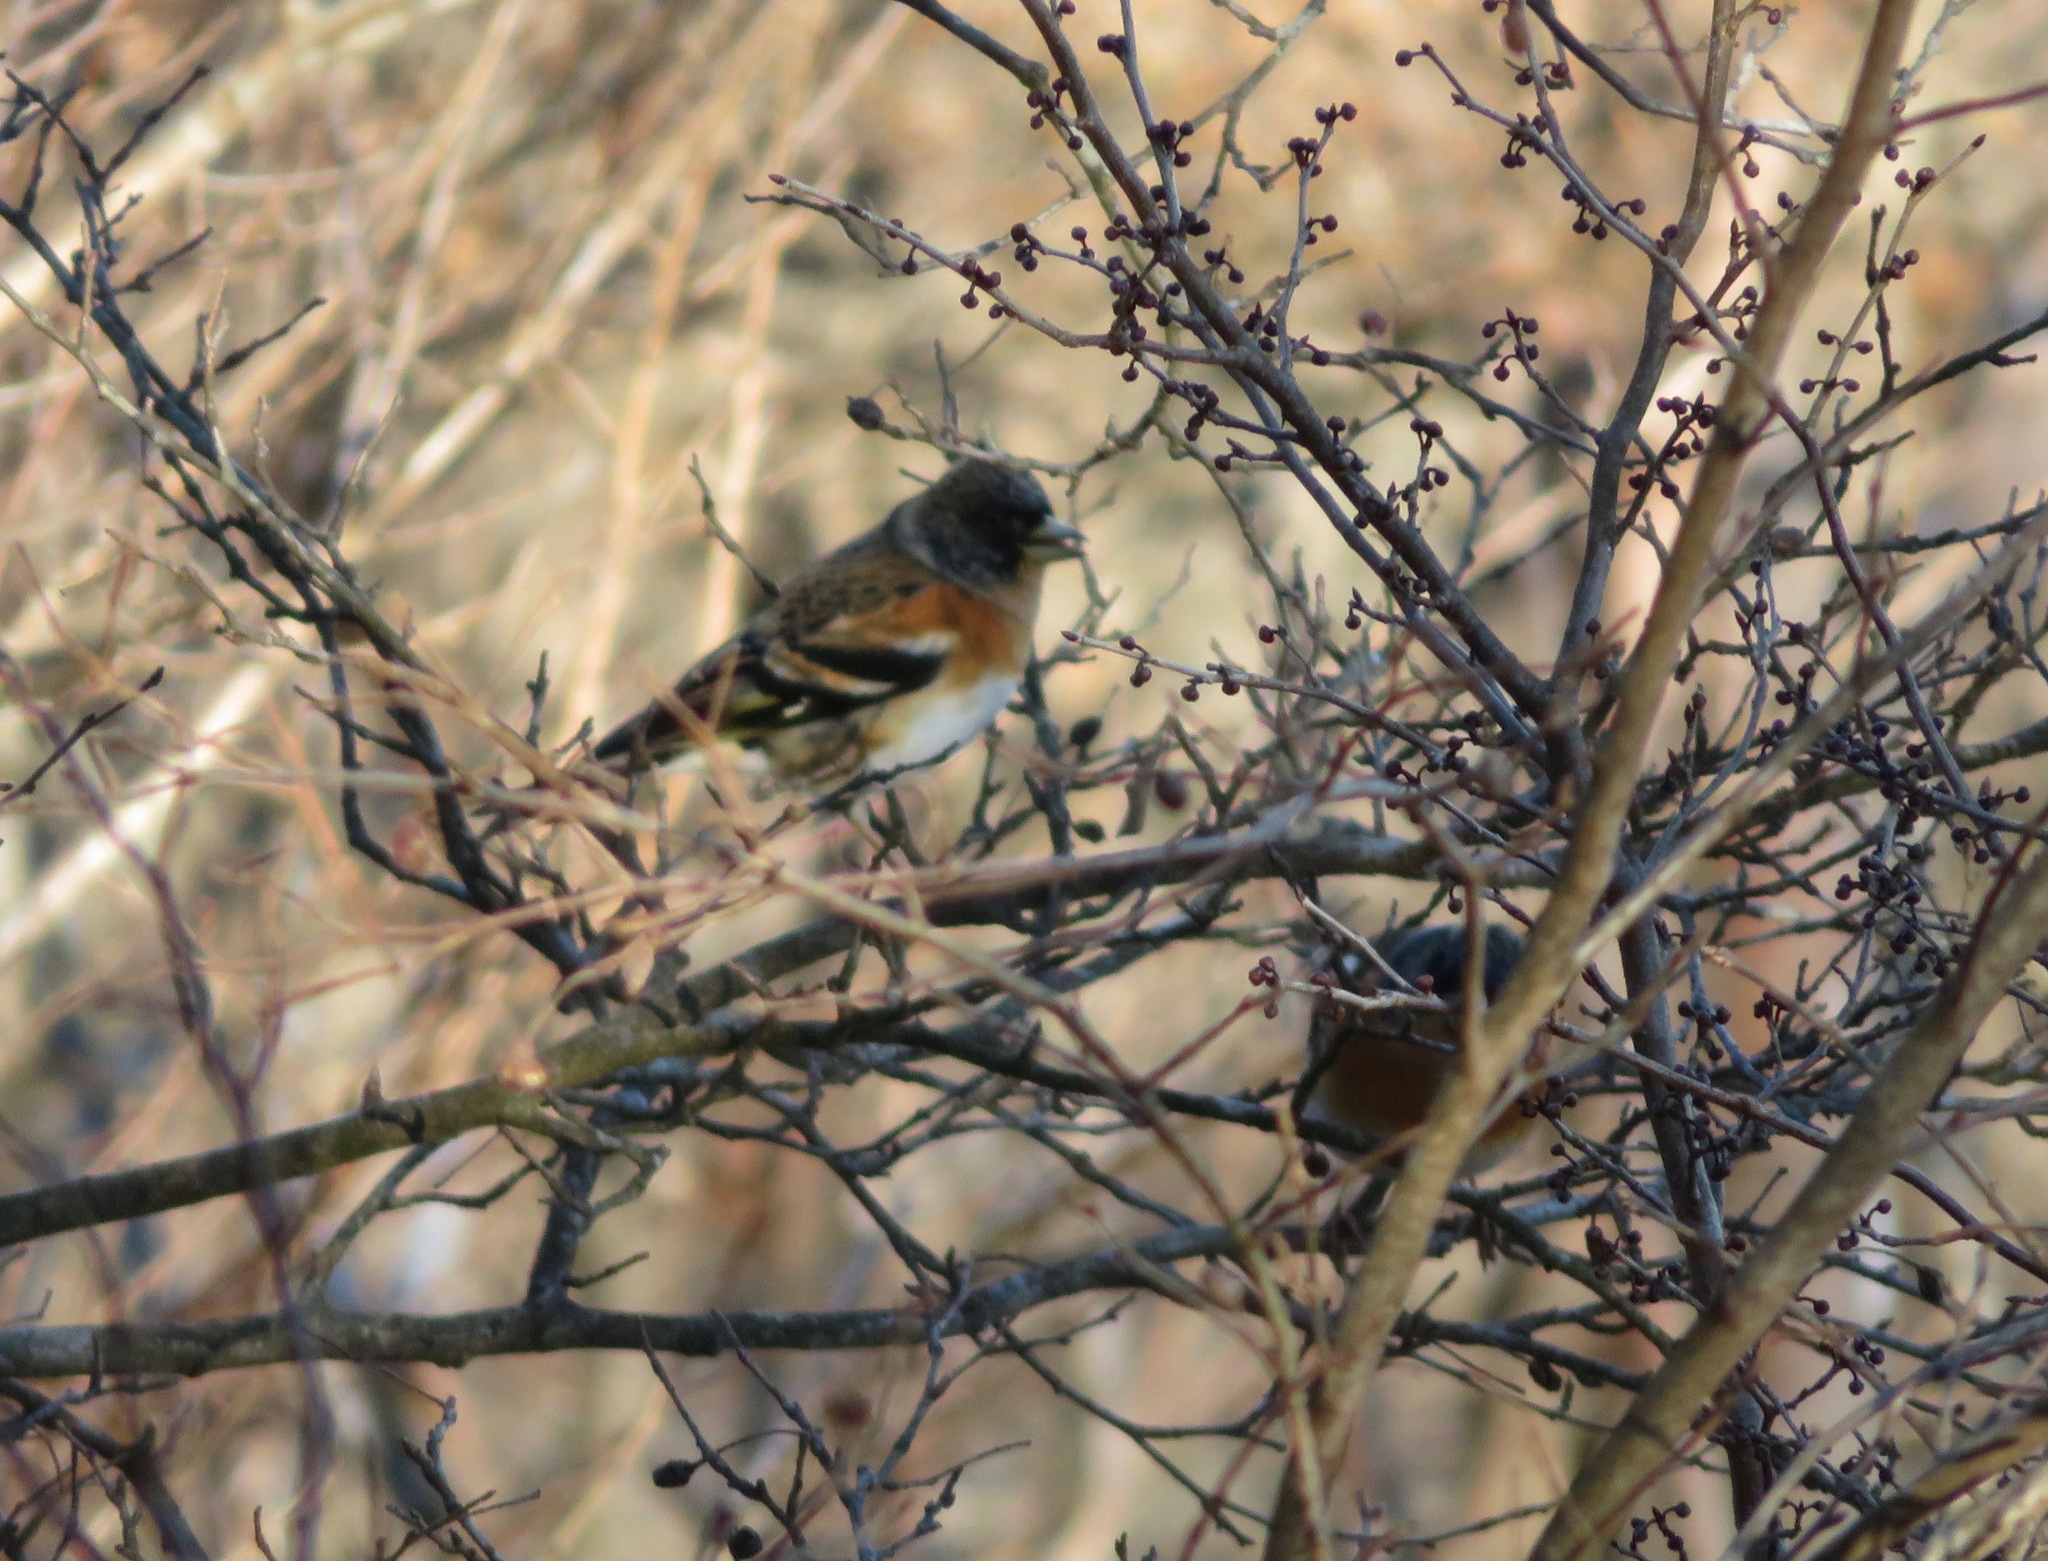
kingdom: Animalia
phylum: Chordata
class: Aves
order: Passeriformes
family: Fringillidae
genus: Fringilla
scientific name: Fringilla montifringilla
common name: Brambling
